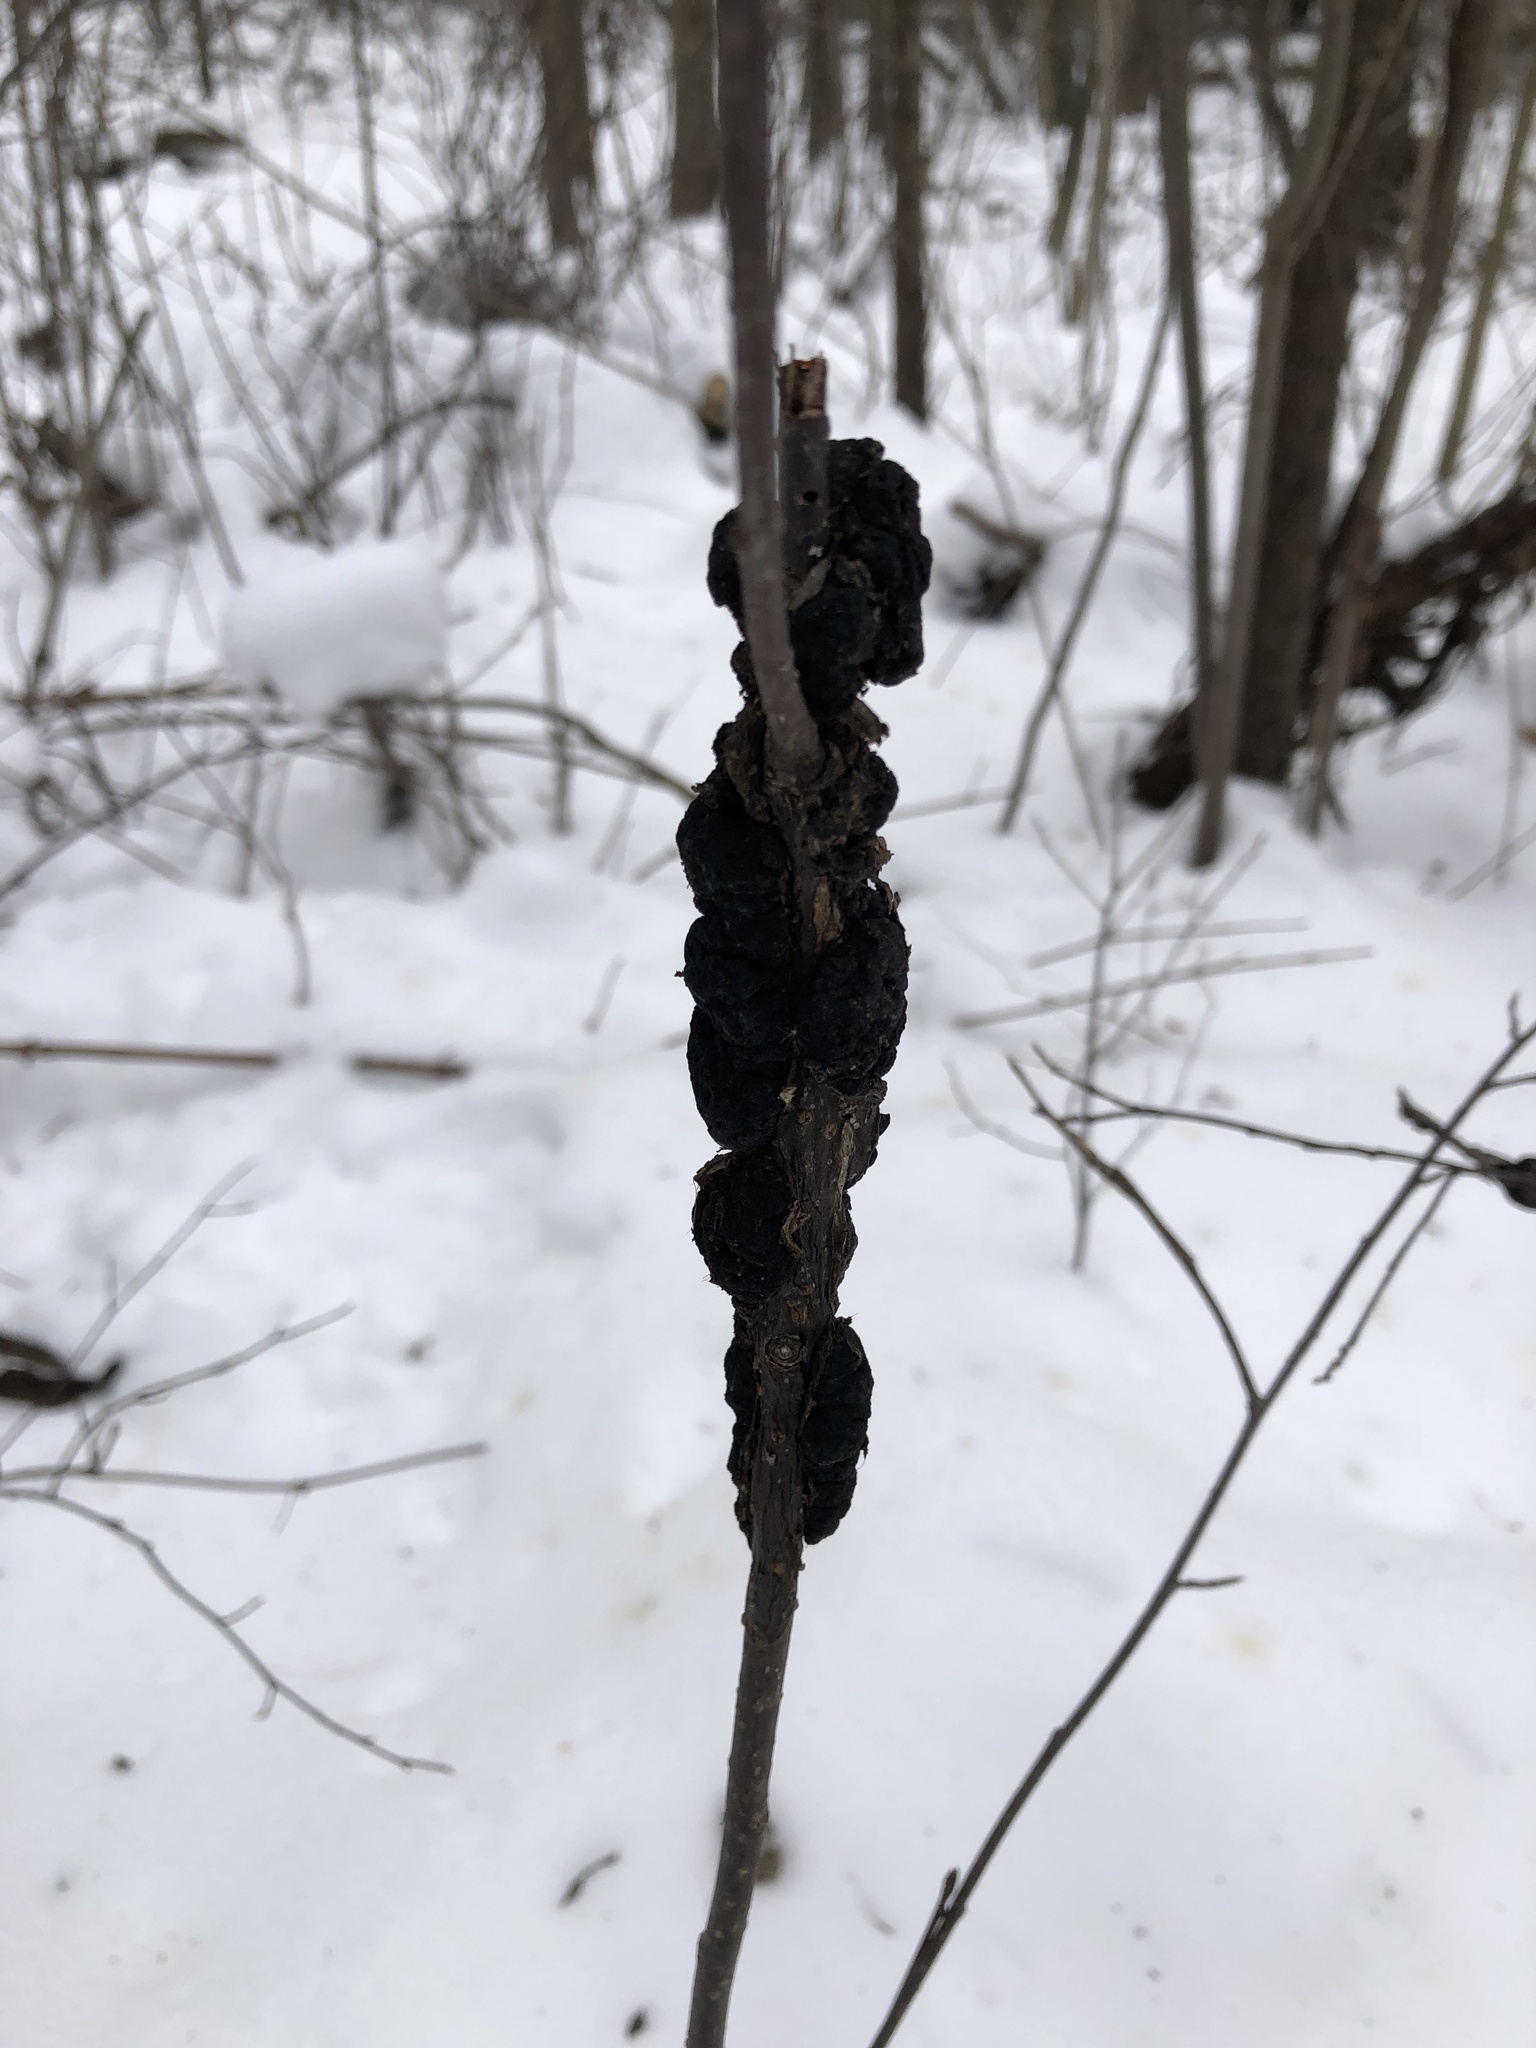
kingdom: Fungi
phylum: Ascomycota
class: Dothideomycetes
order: Venturiales
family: Venturiaceae
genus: Apiosporina
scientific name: Apiosporina morbosa
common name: Black knot
